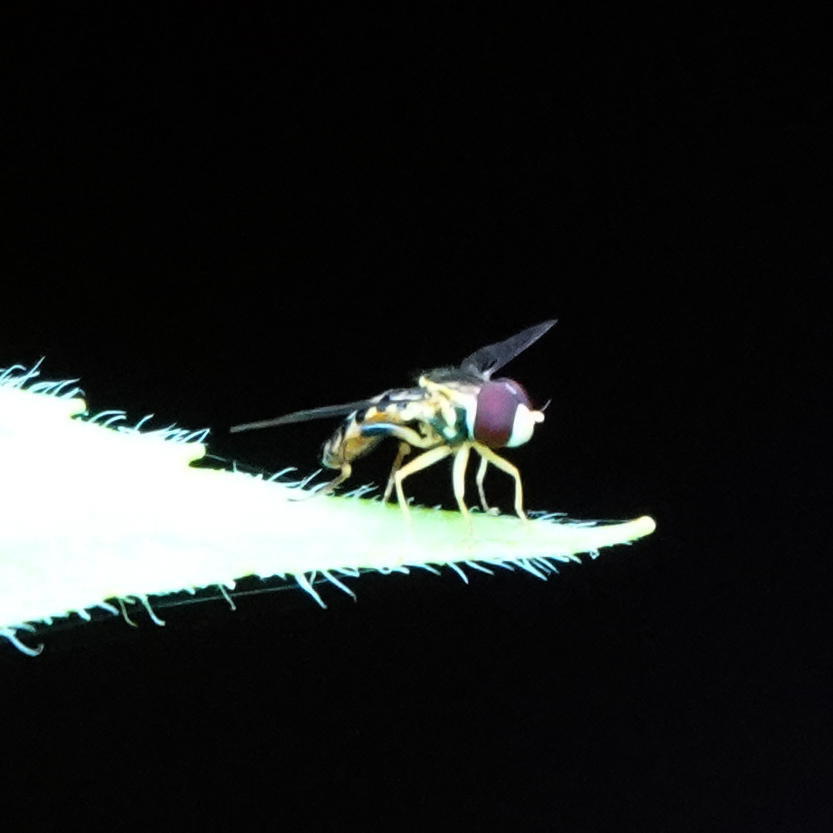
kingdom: Animalia
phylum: Arthropoda
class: Insecta
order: Diptera
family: Syrphidae
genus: Toxomerus
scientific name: Toxomerus geminatus
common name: Eastern calligrapher
